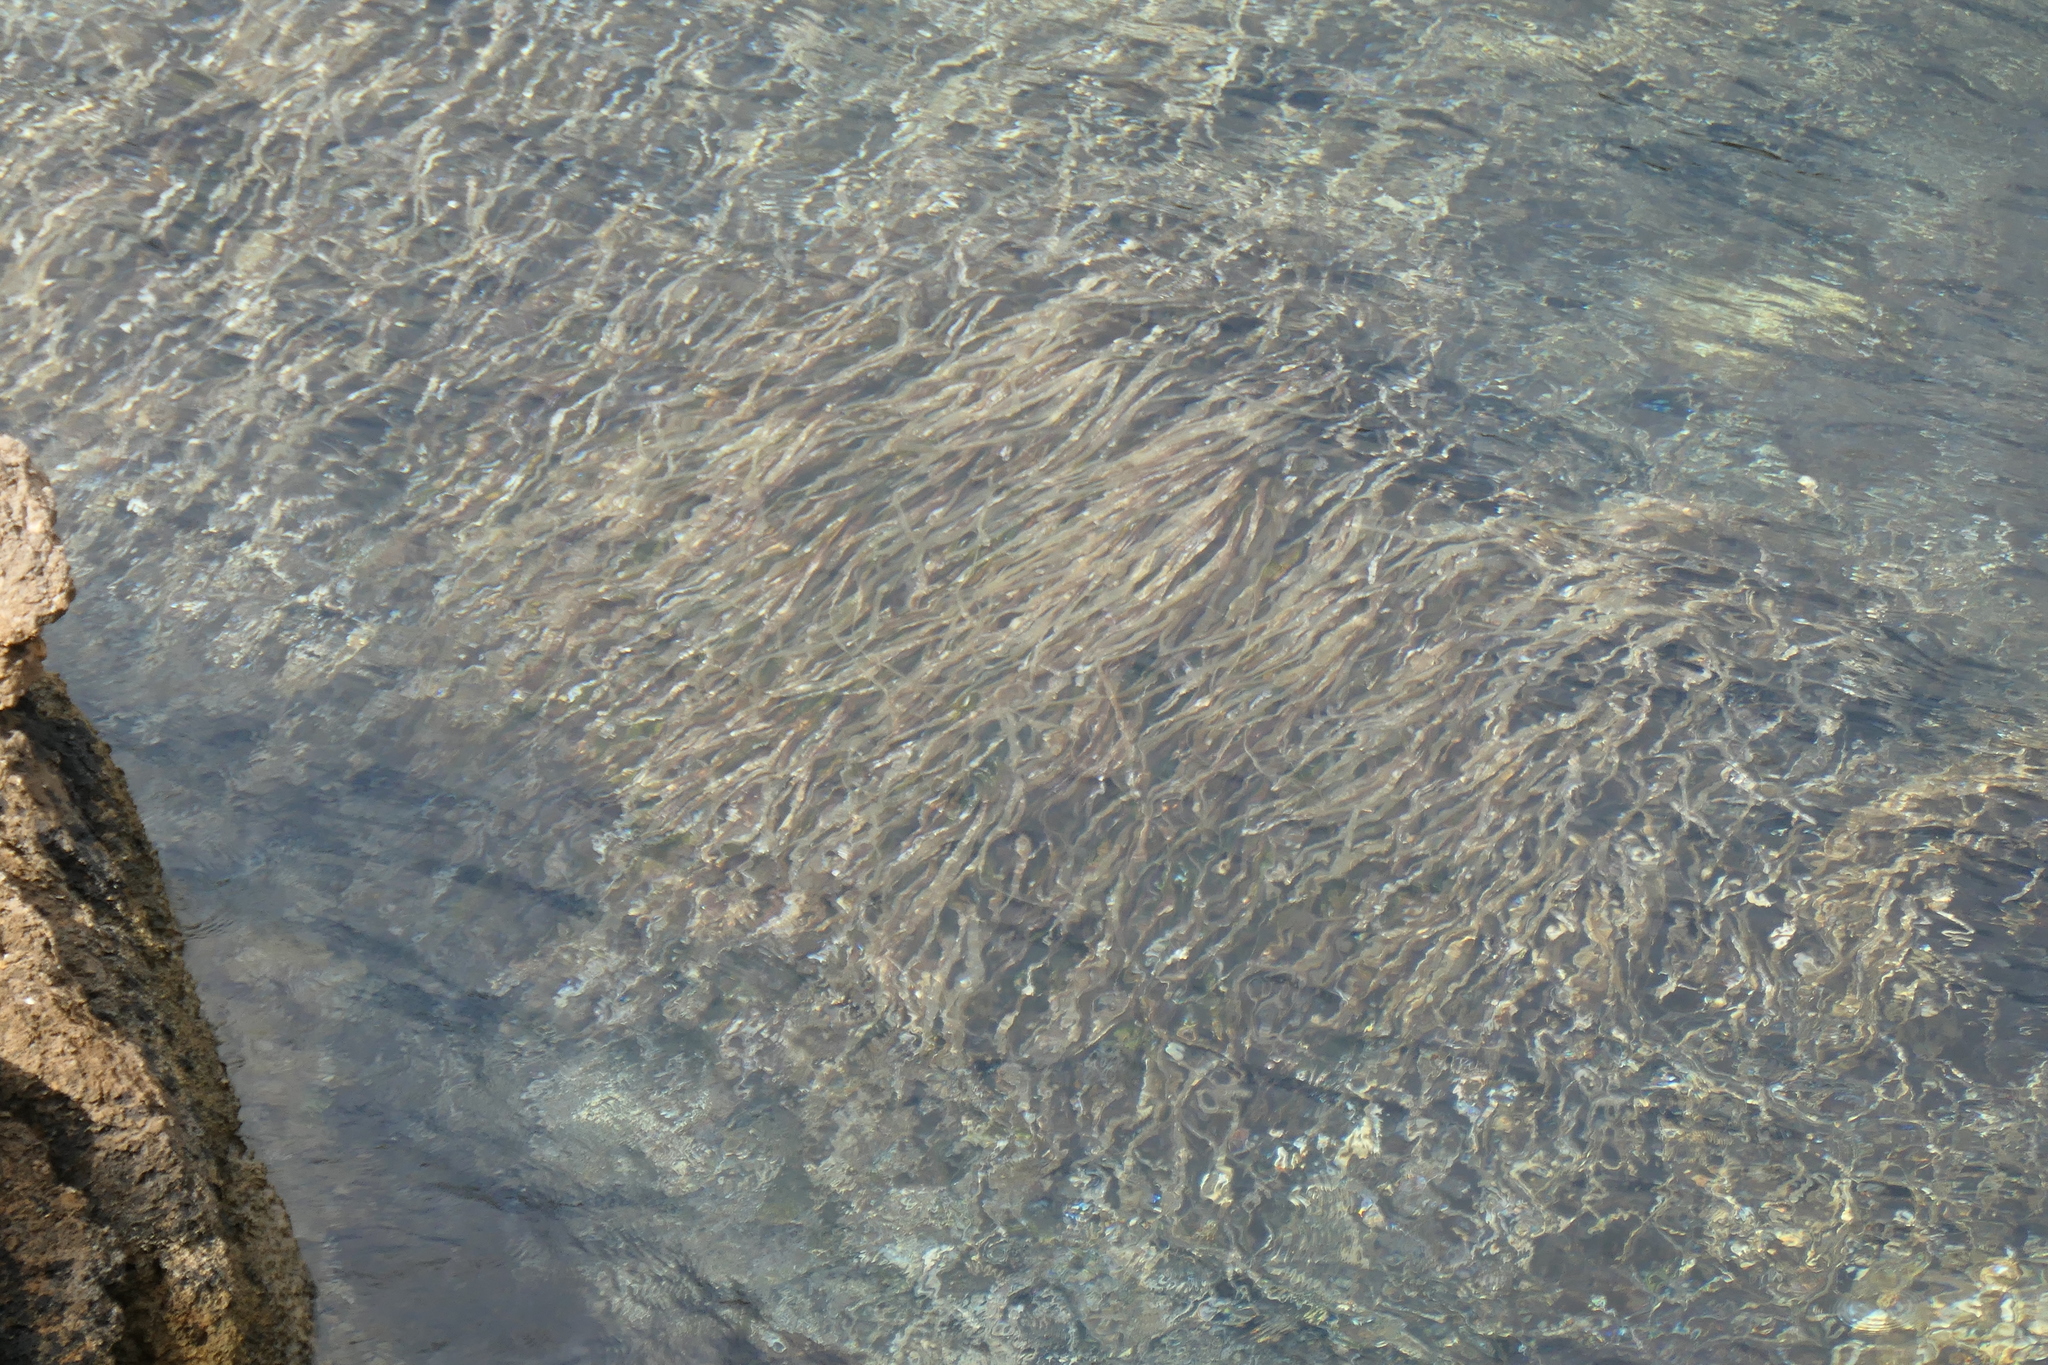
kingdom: Plantae
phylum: Tracheophyta
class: Liliopsida
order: Alismatales
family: Posidoniaceae
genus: Posidonia
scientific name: Posidonia oceanica
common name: Mediterranean tapeweed
